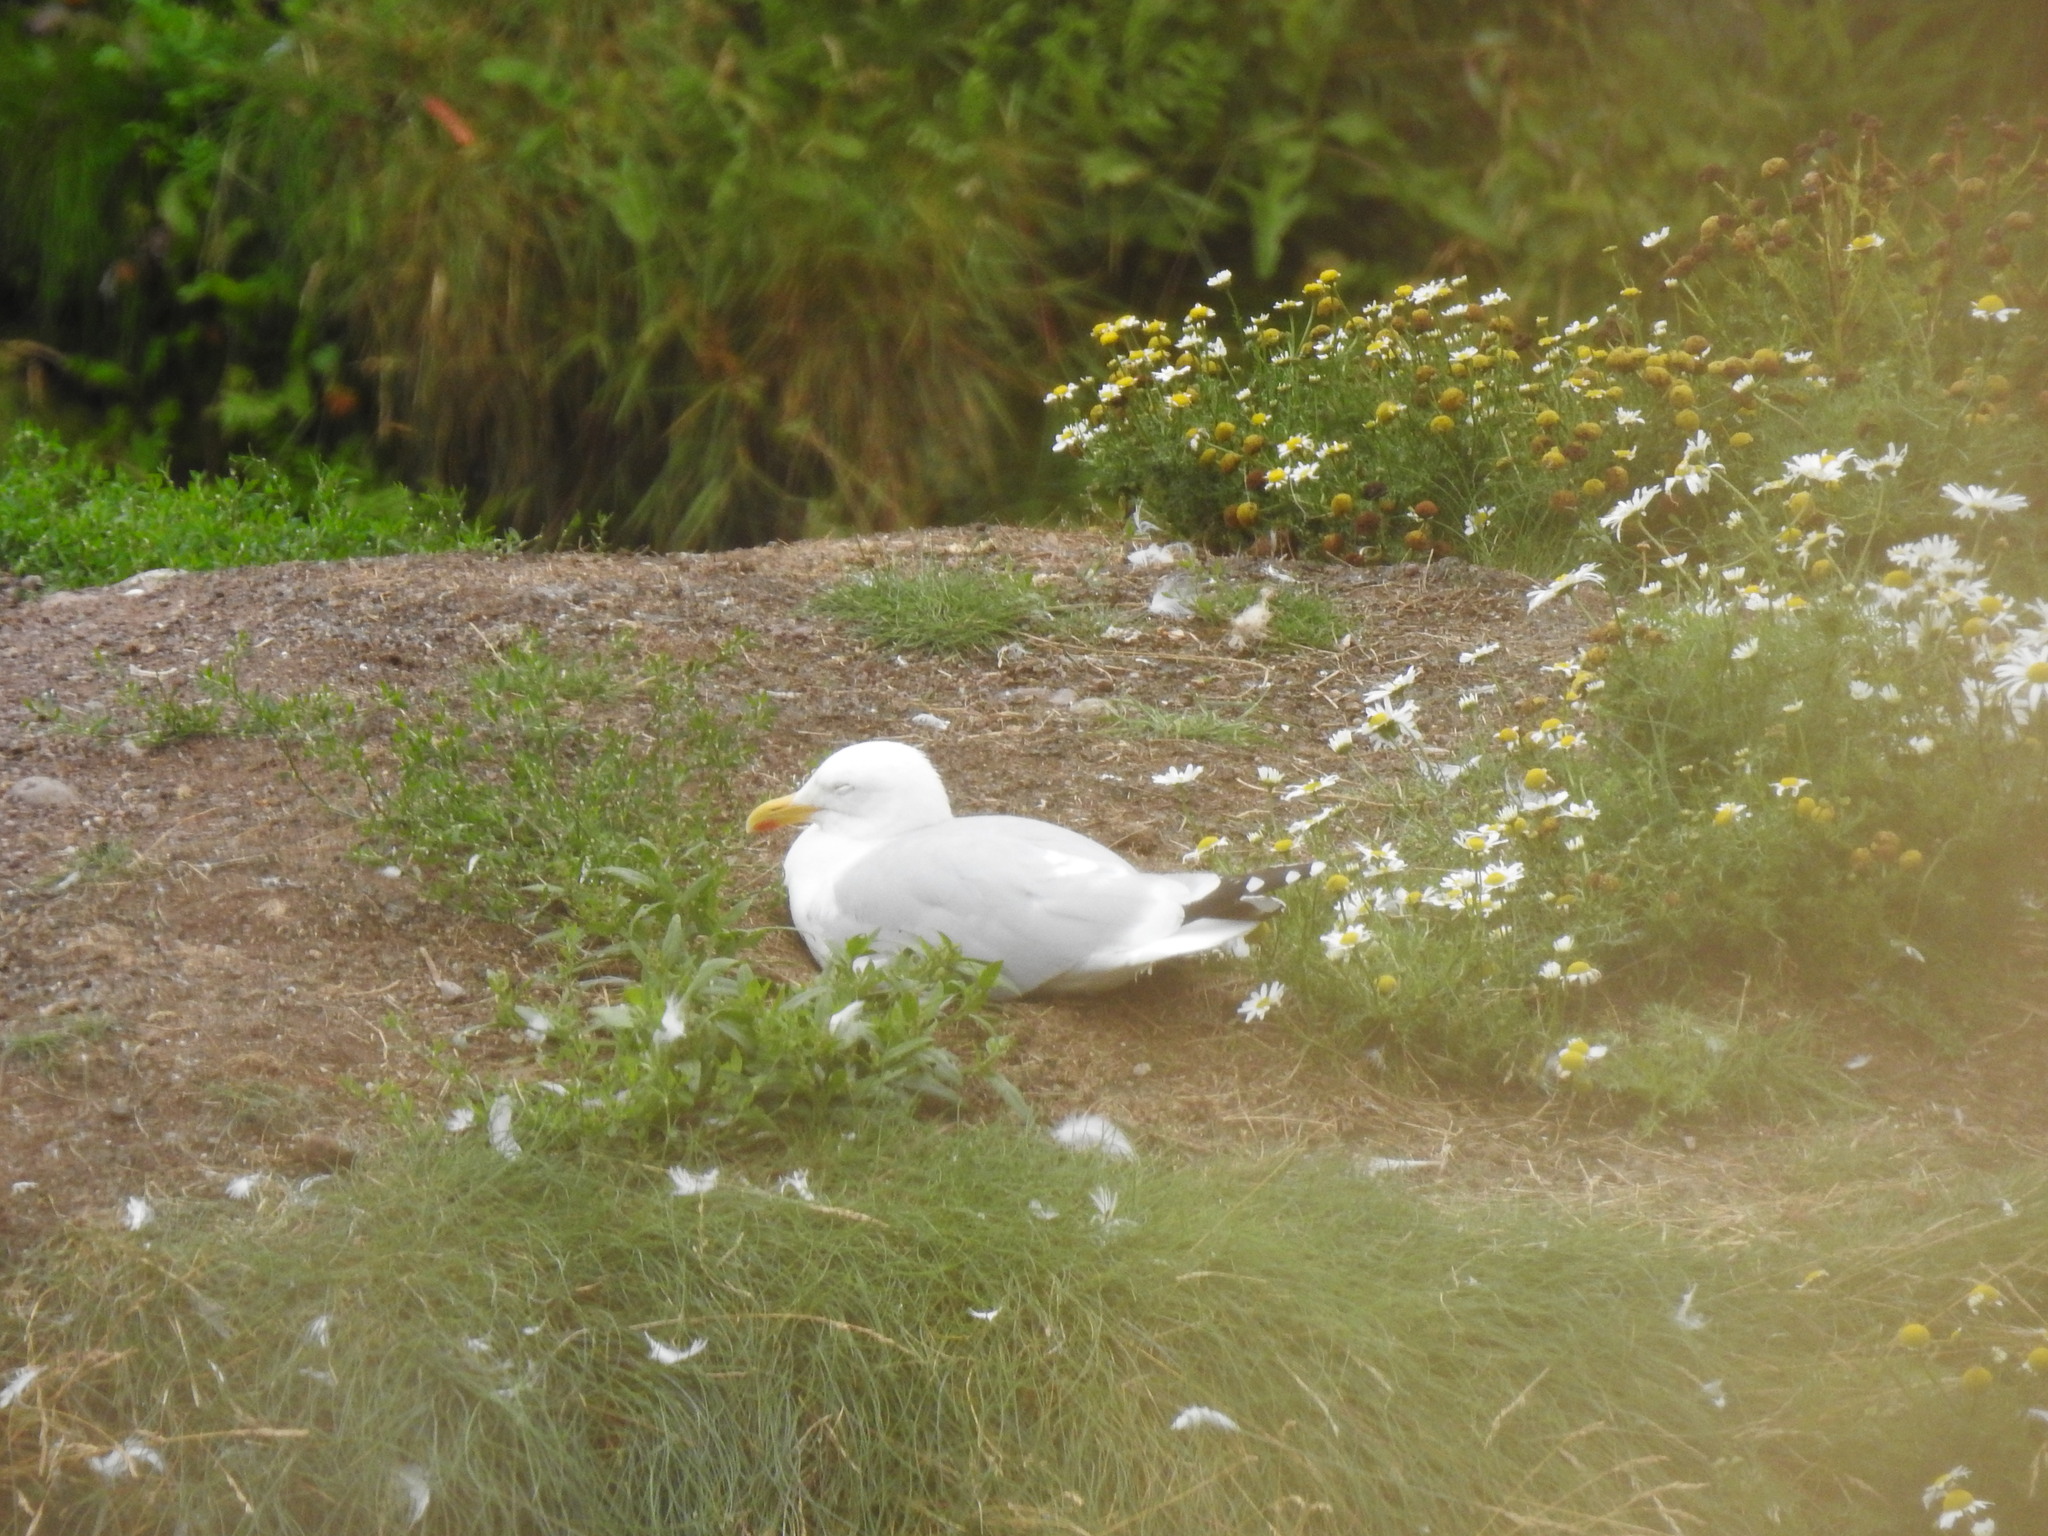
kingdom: Animalia
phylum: Chordata
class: Aves
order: Charadriiformes
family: Laridae
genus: Larus
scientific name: Larus argentatus
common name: Herring gull
